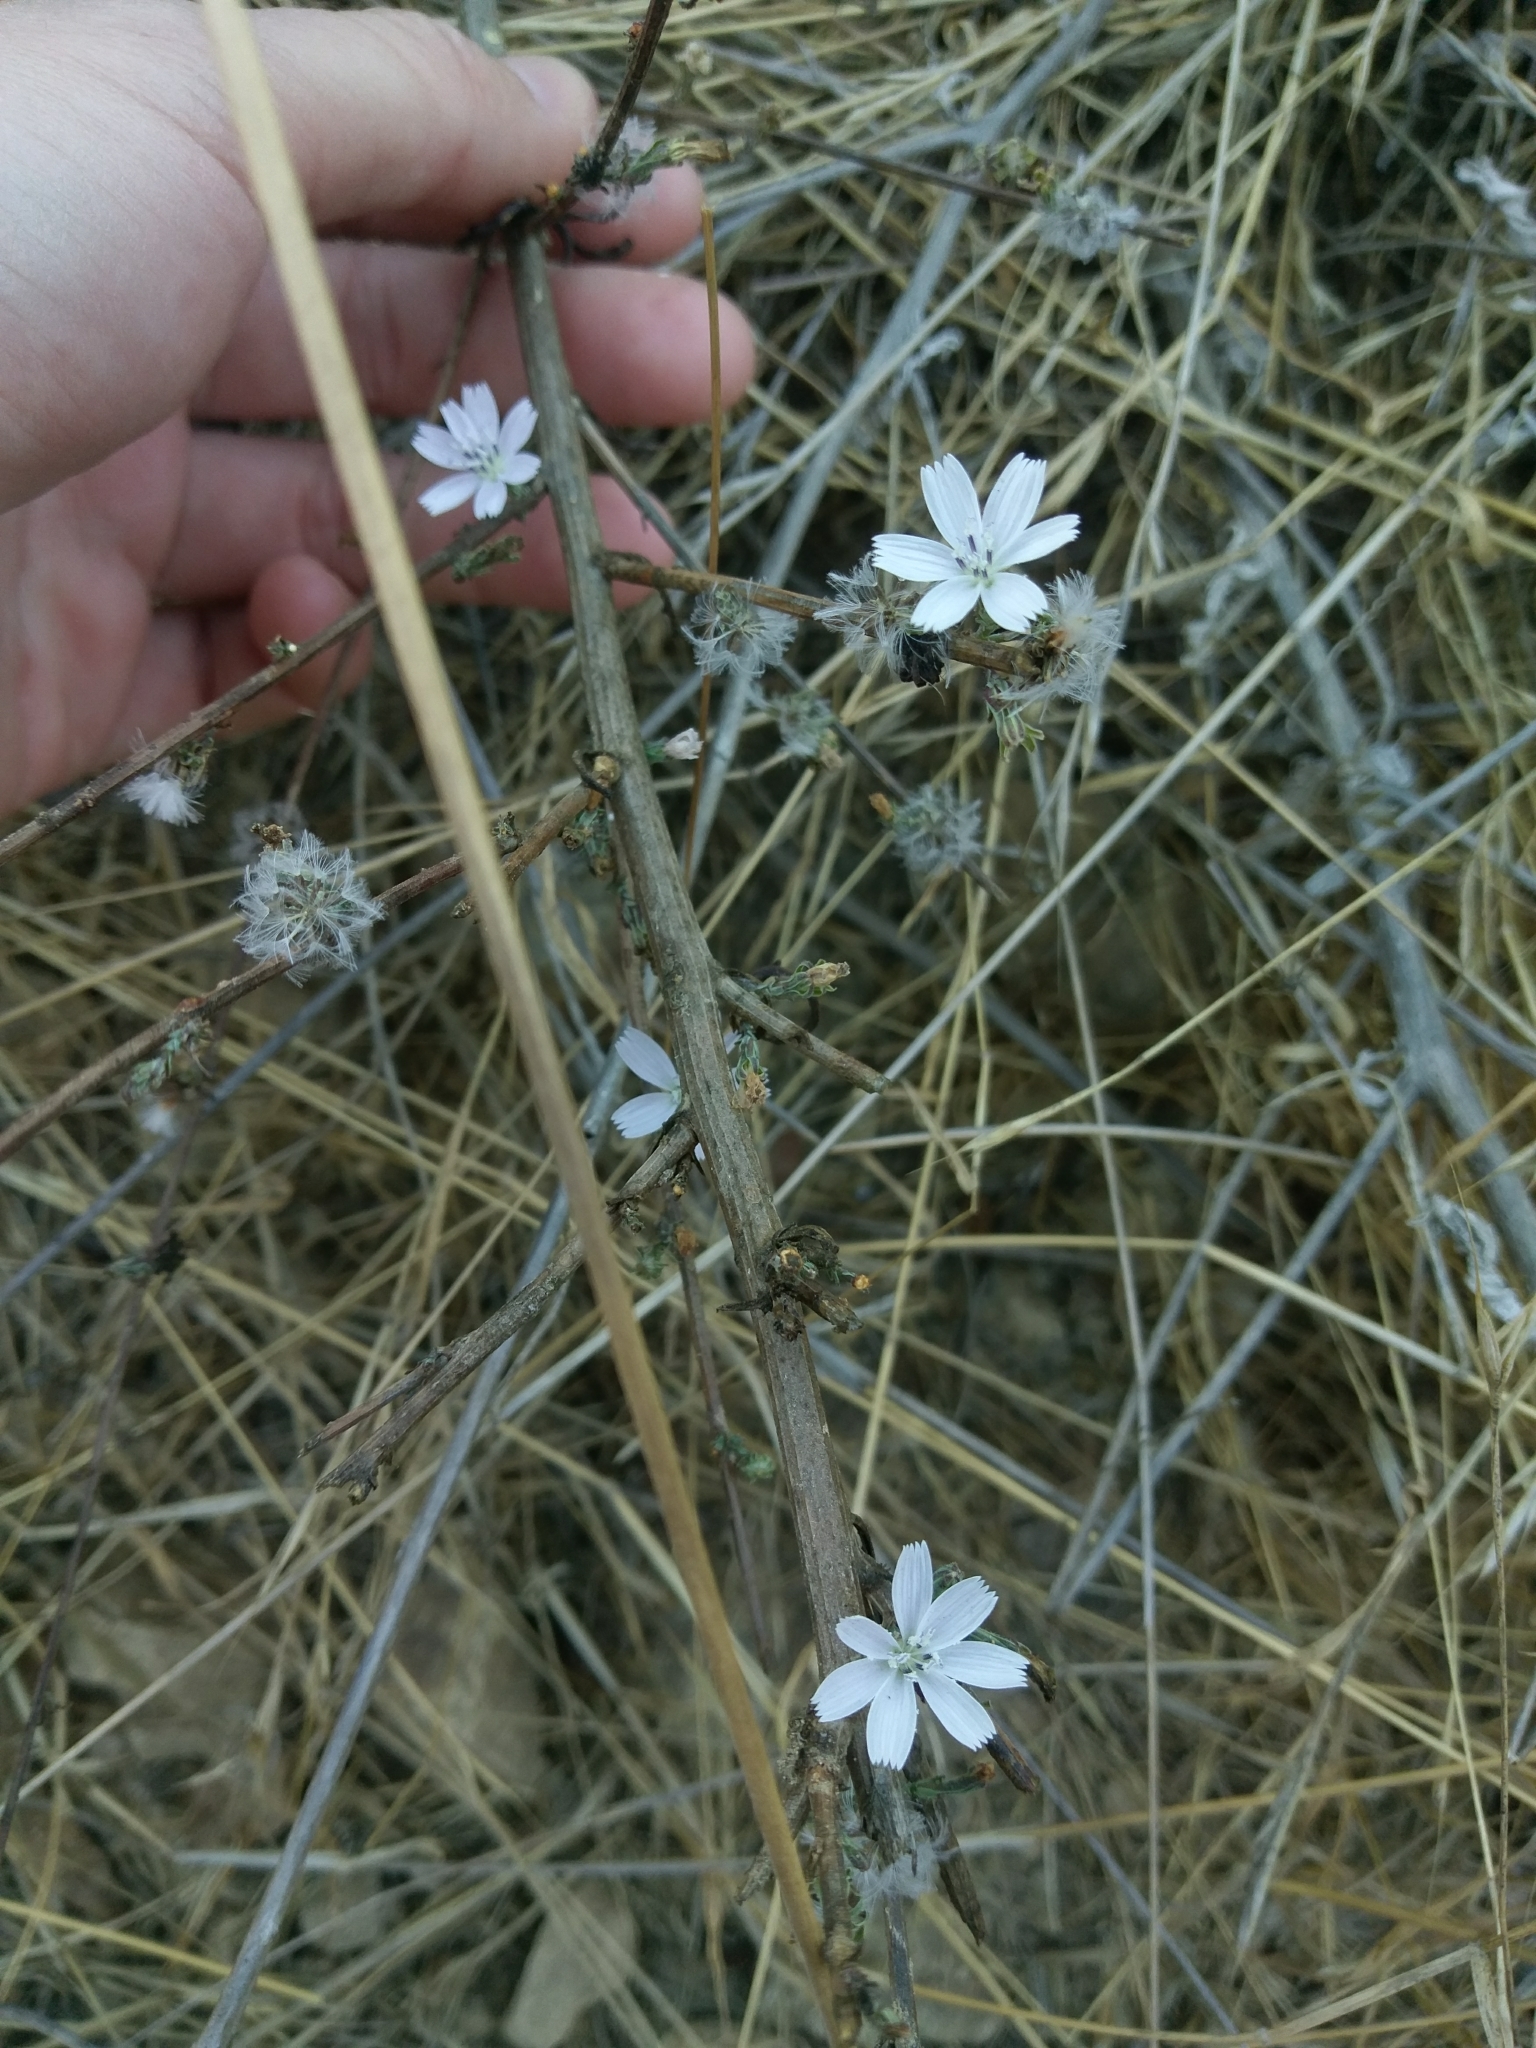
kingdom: Plantae
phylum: Tracheophyta
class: Magnoliopsida
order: Asterales
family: Asteraceae
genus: Stephanomeria
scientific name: Stephanomeria virgata
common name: Virgate wirelettuce
